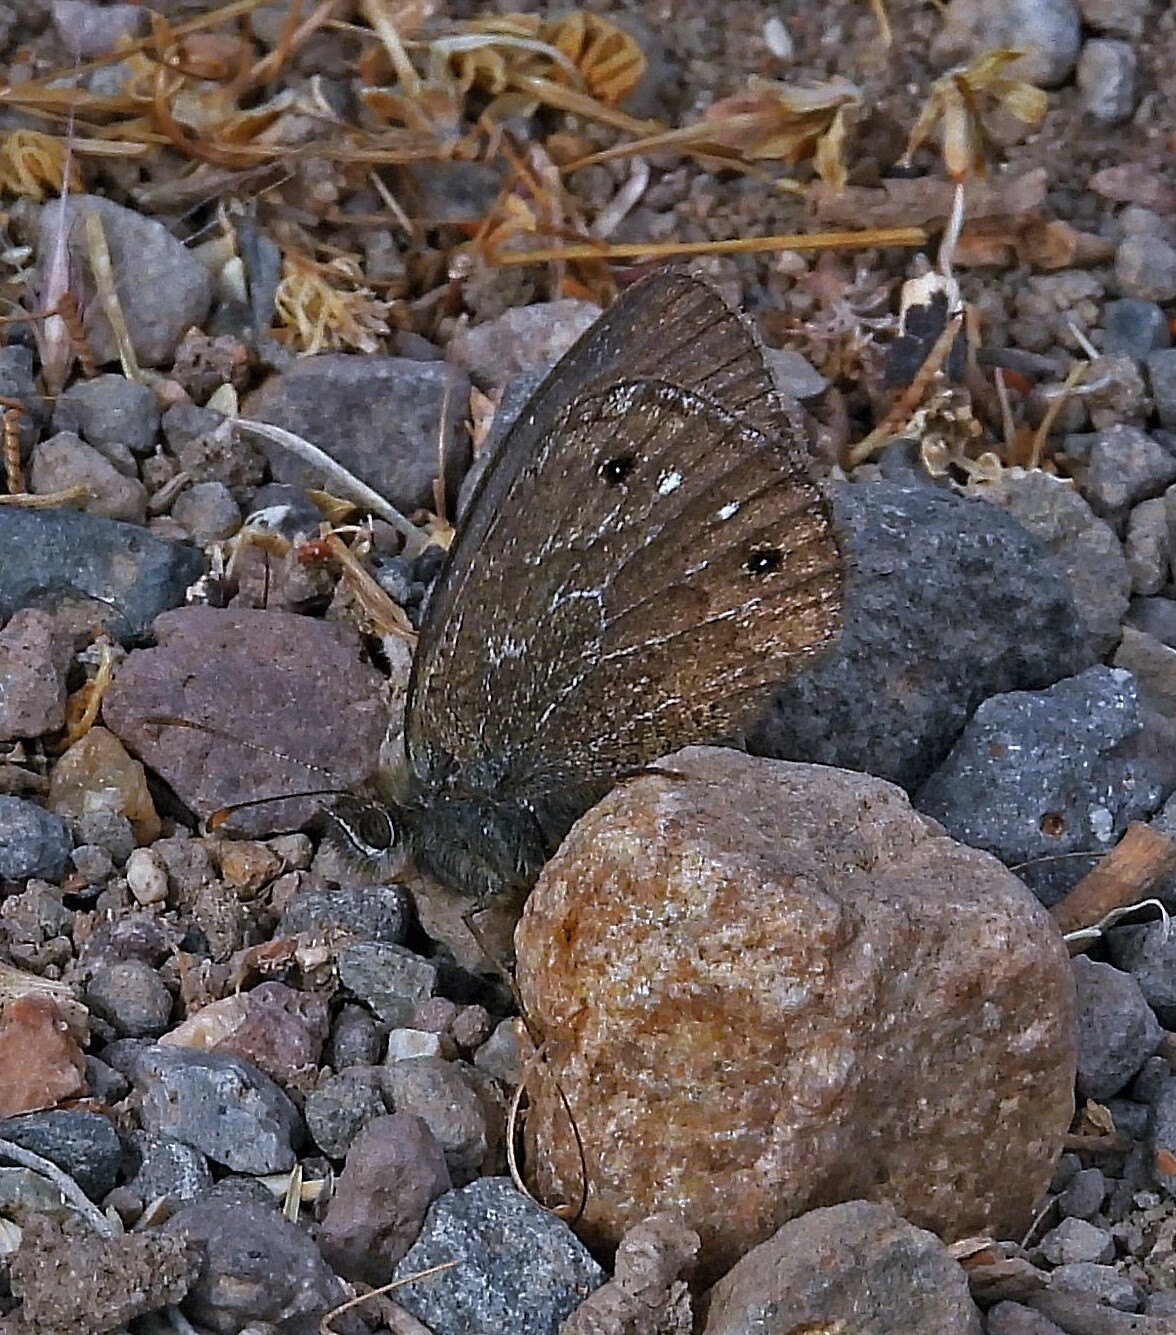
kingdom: Animalia
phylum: Arthropoda
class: Insecta
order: Lepidoptera
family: Nymphalidae
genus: Cosmosatyrus
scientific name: Cosmosatyrus leptoneuroides
